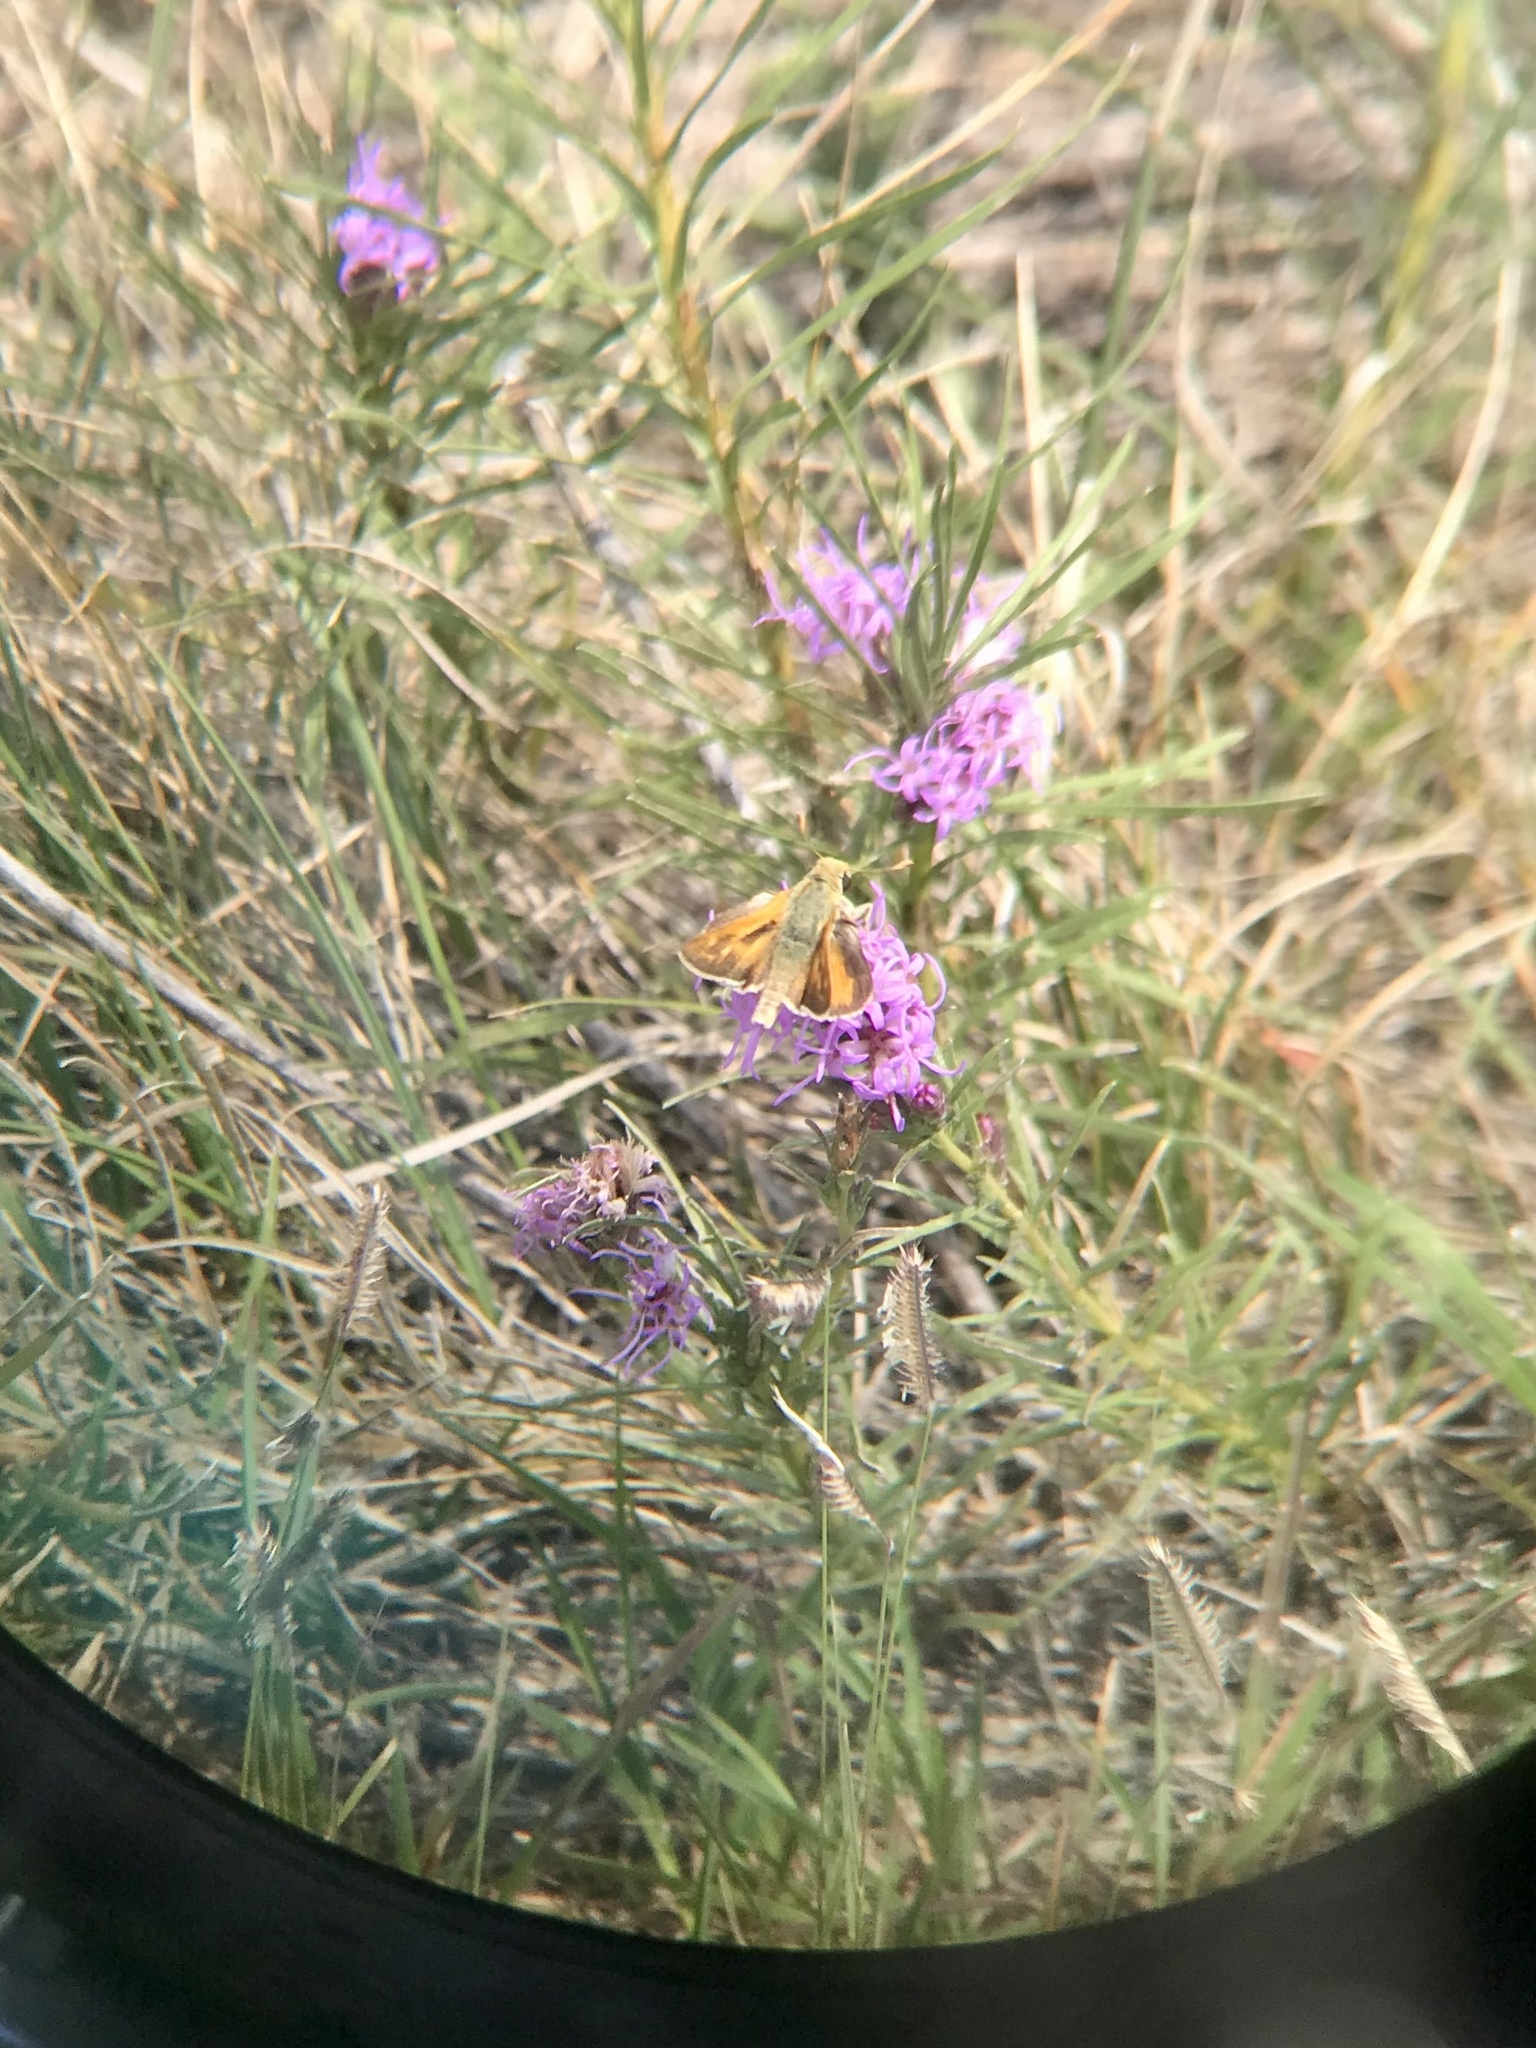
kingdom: Animalia
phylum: Arthropoda
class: Insecta
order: Lepidoptera
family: Hesperiidae
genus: Hesperia
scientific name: Hesperia leonardus
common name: Leonard's skipper
